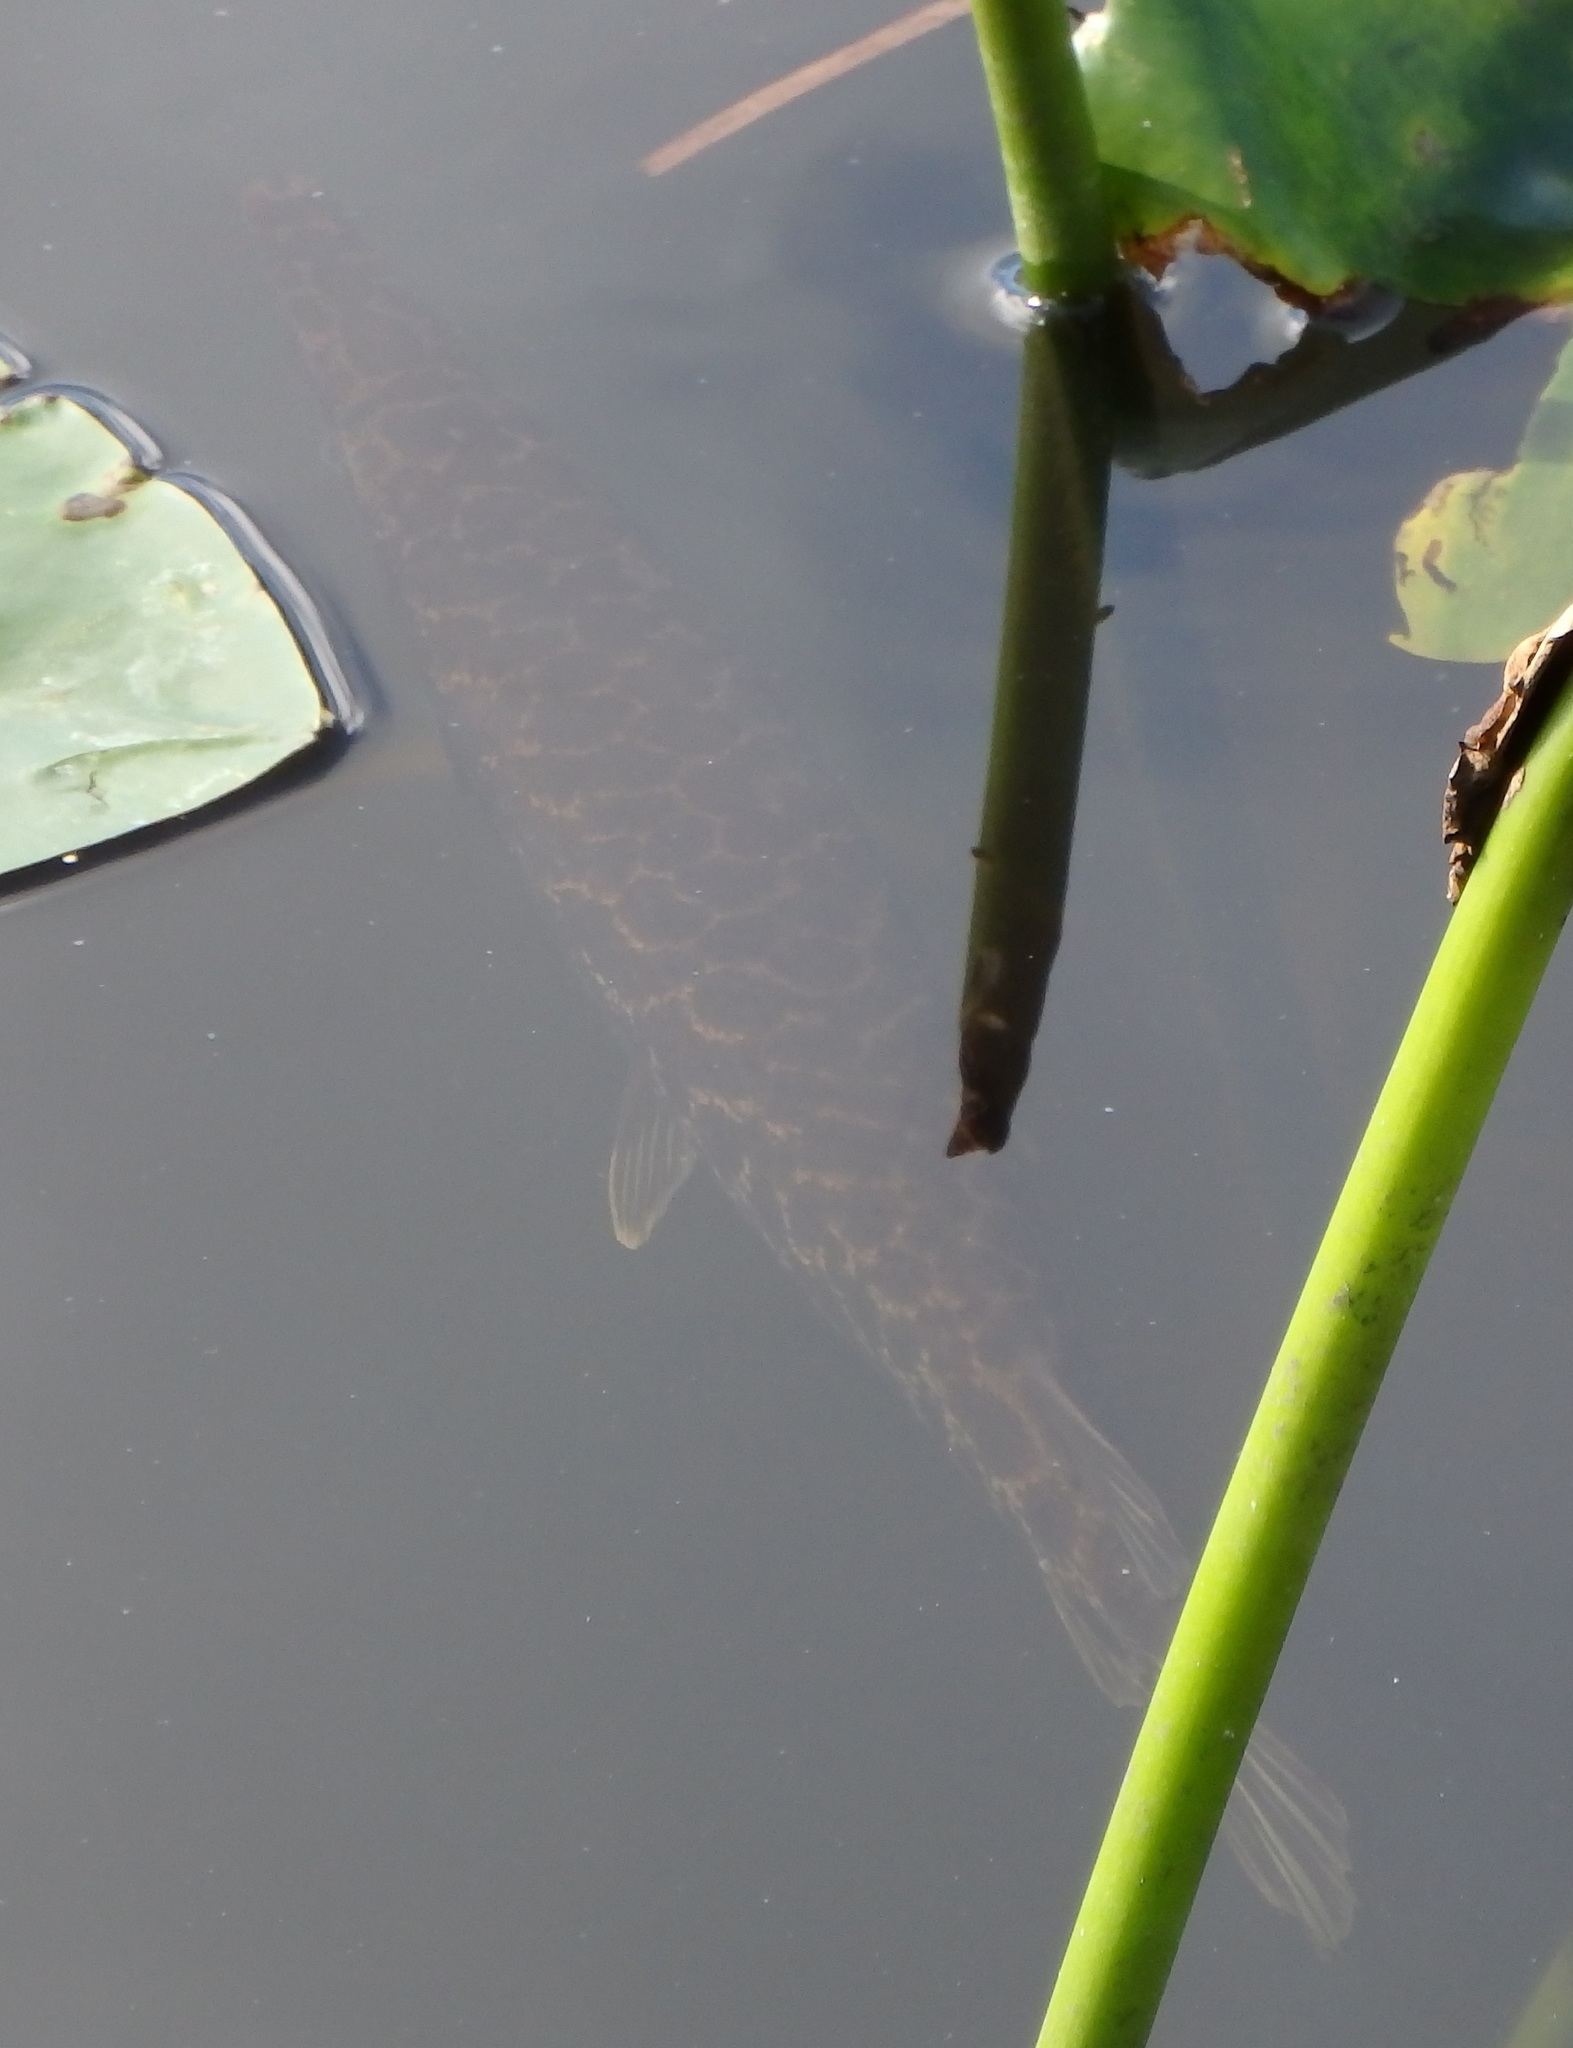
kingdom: Animalia
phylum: Chordata
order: Lepisosteiformes
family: Lepisosteidae
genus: Lepisosteus
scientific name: Lepisosteus platyrhincus
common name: Florida gar
